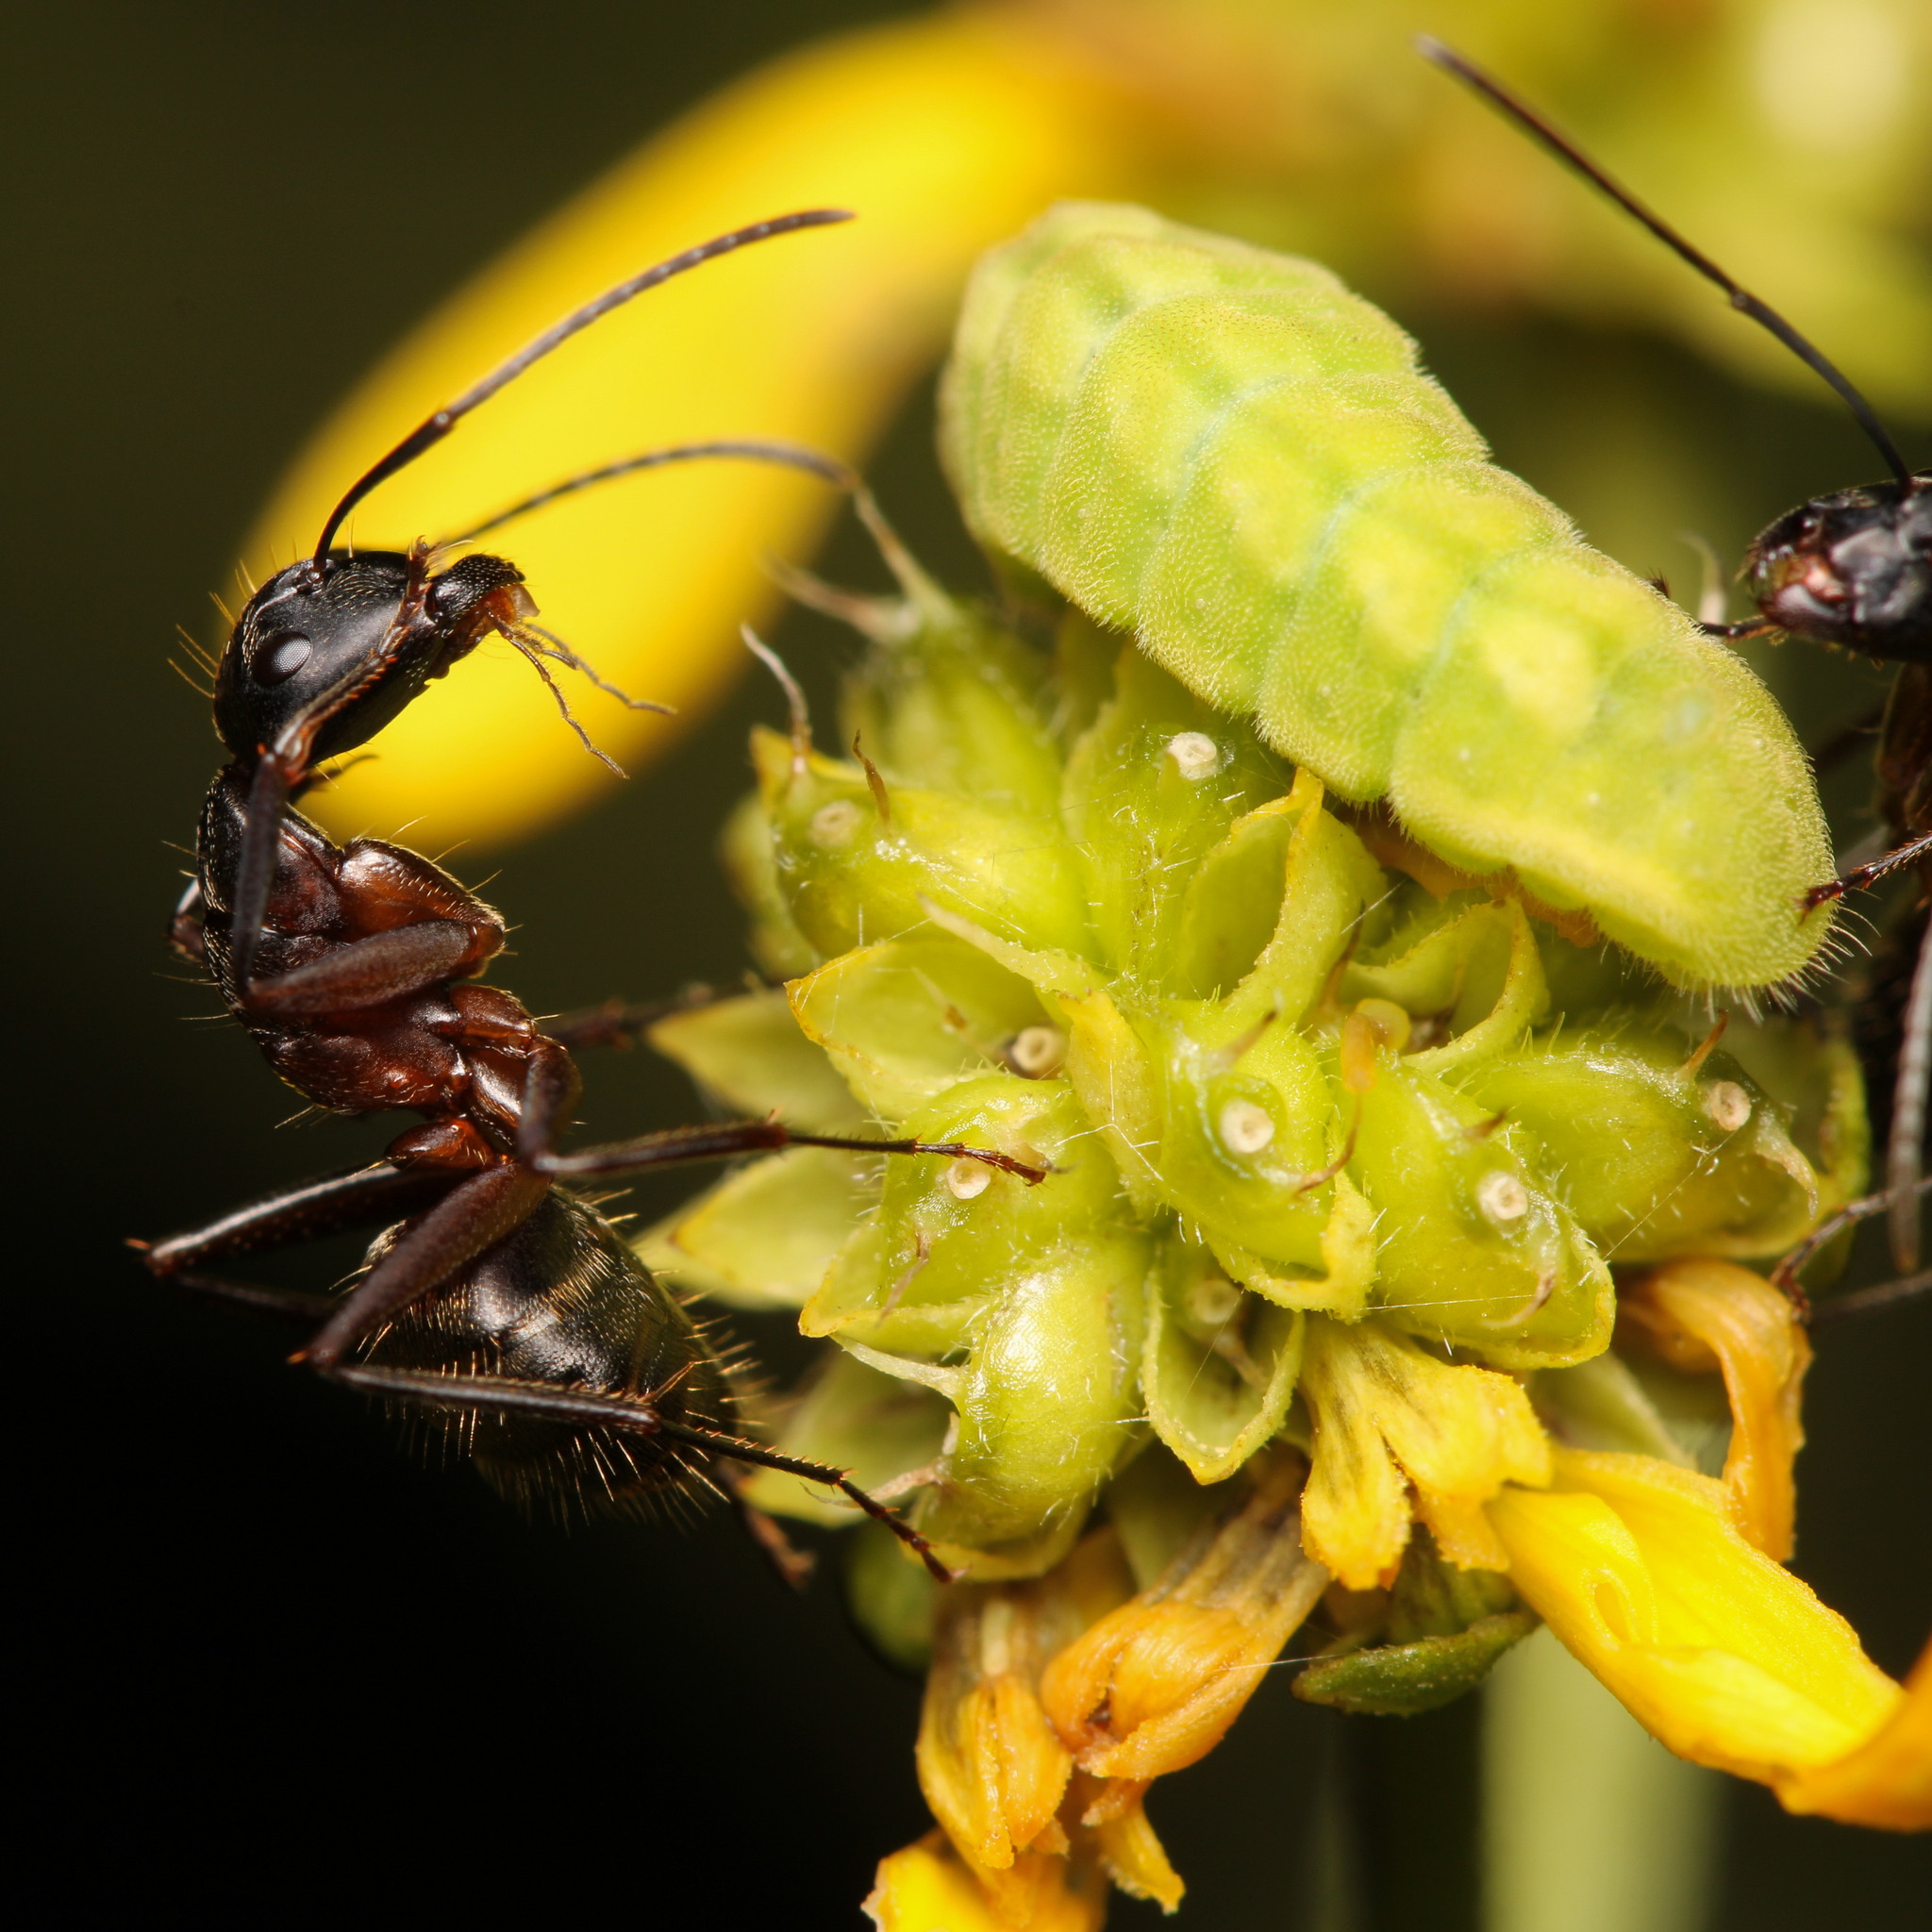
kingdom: Animalia
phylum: Arthropoda
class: Insecta
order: Lepidoptera
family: Lycaenidae
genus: Cyaniris
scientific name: Cyaniris neglecta
